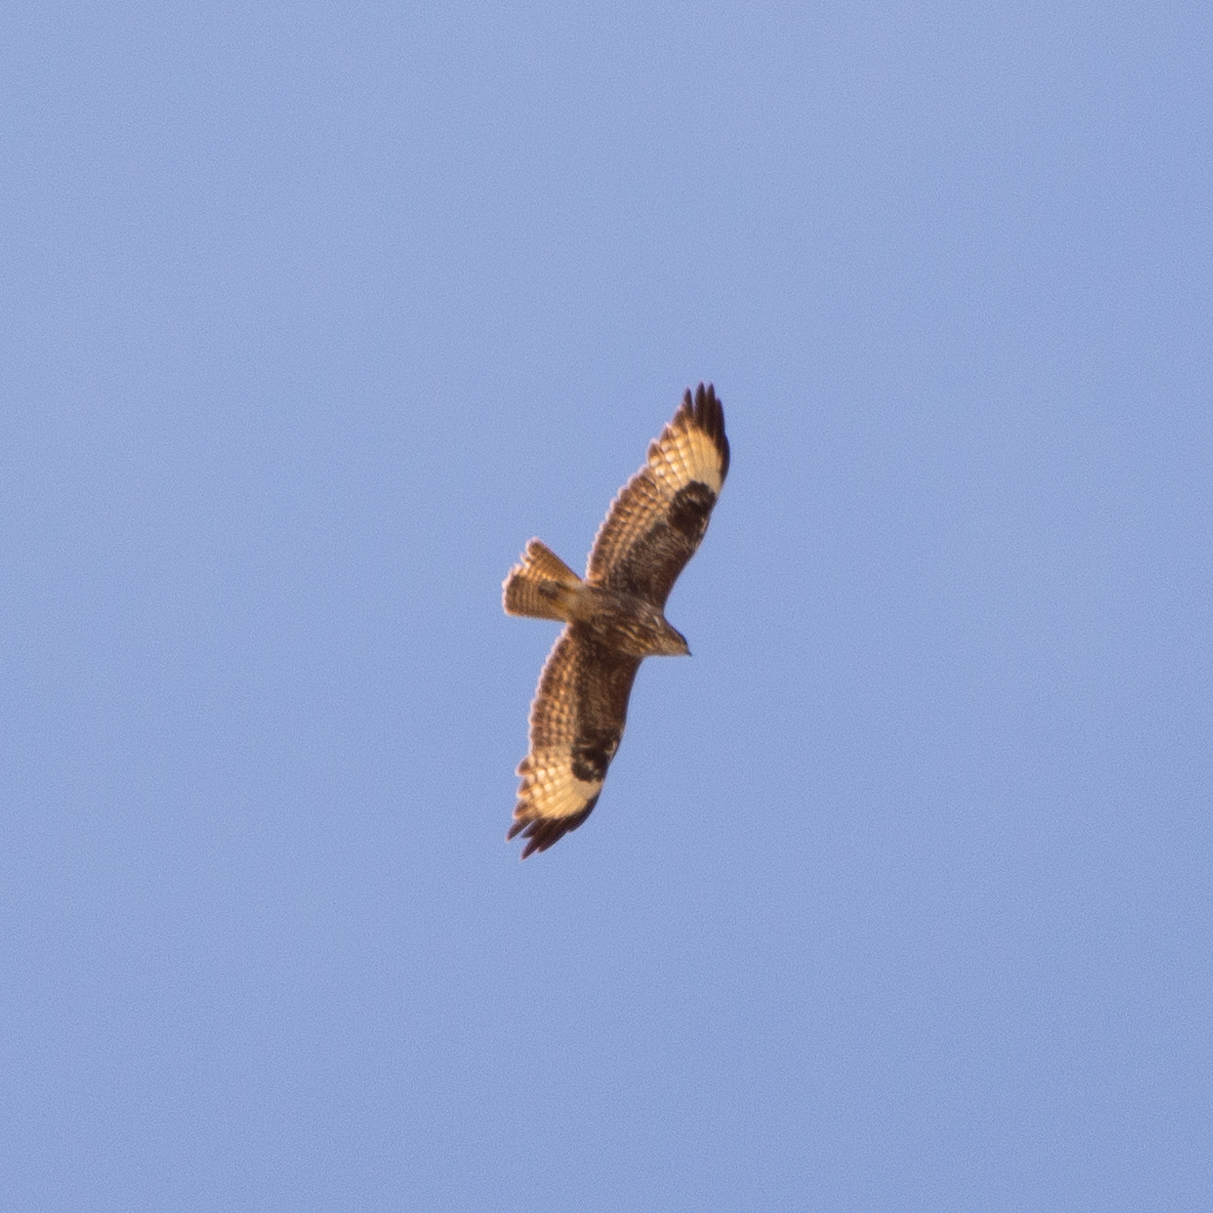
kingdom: Animalia
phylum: Chordata
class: Aves
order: Accipitriformes
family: Accipitridae
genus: Buteo
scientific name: Buteo buteo
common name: Common buzzard
